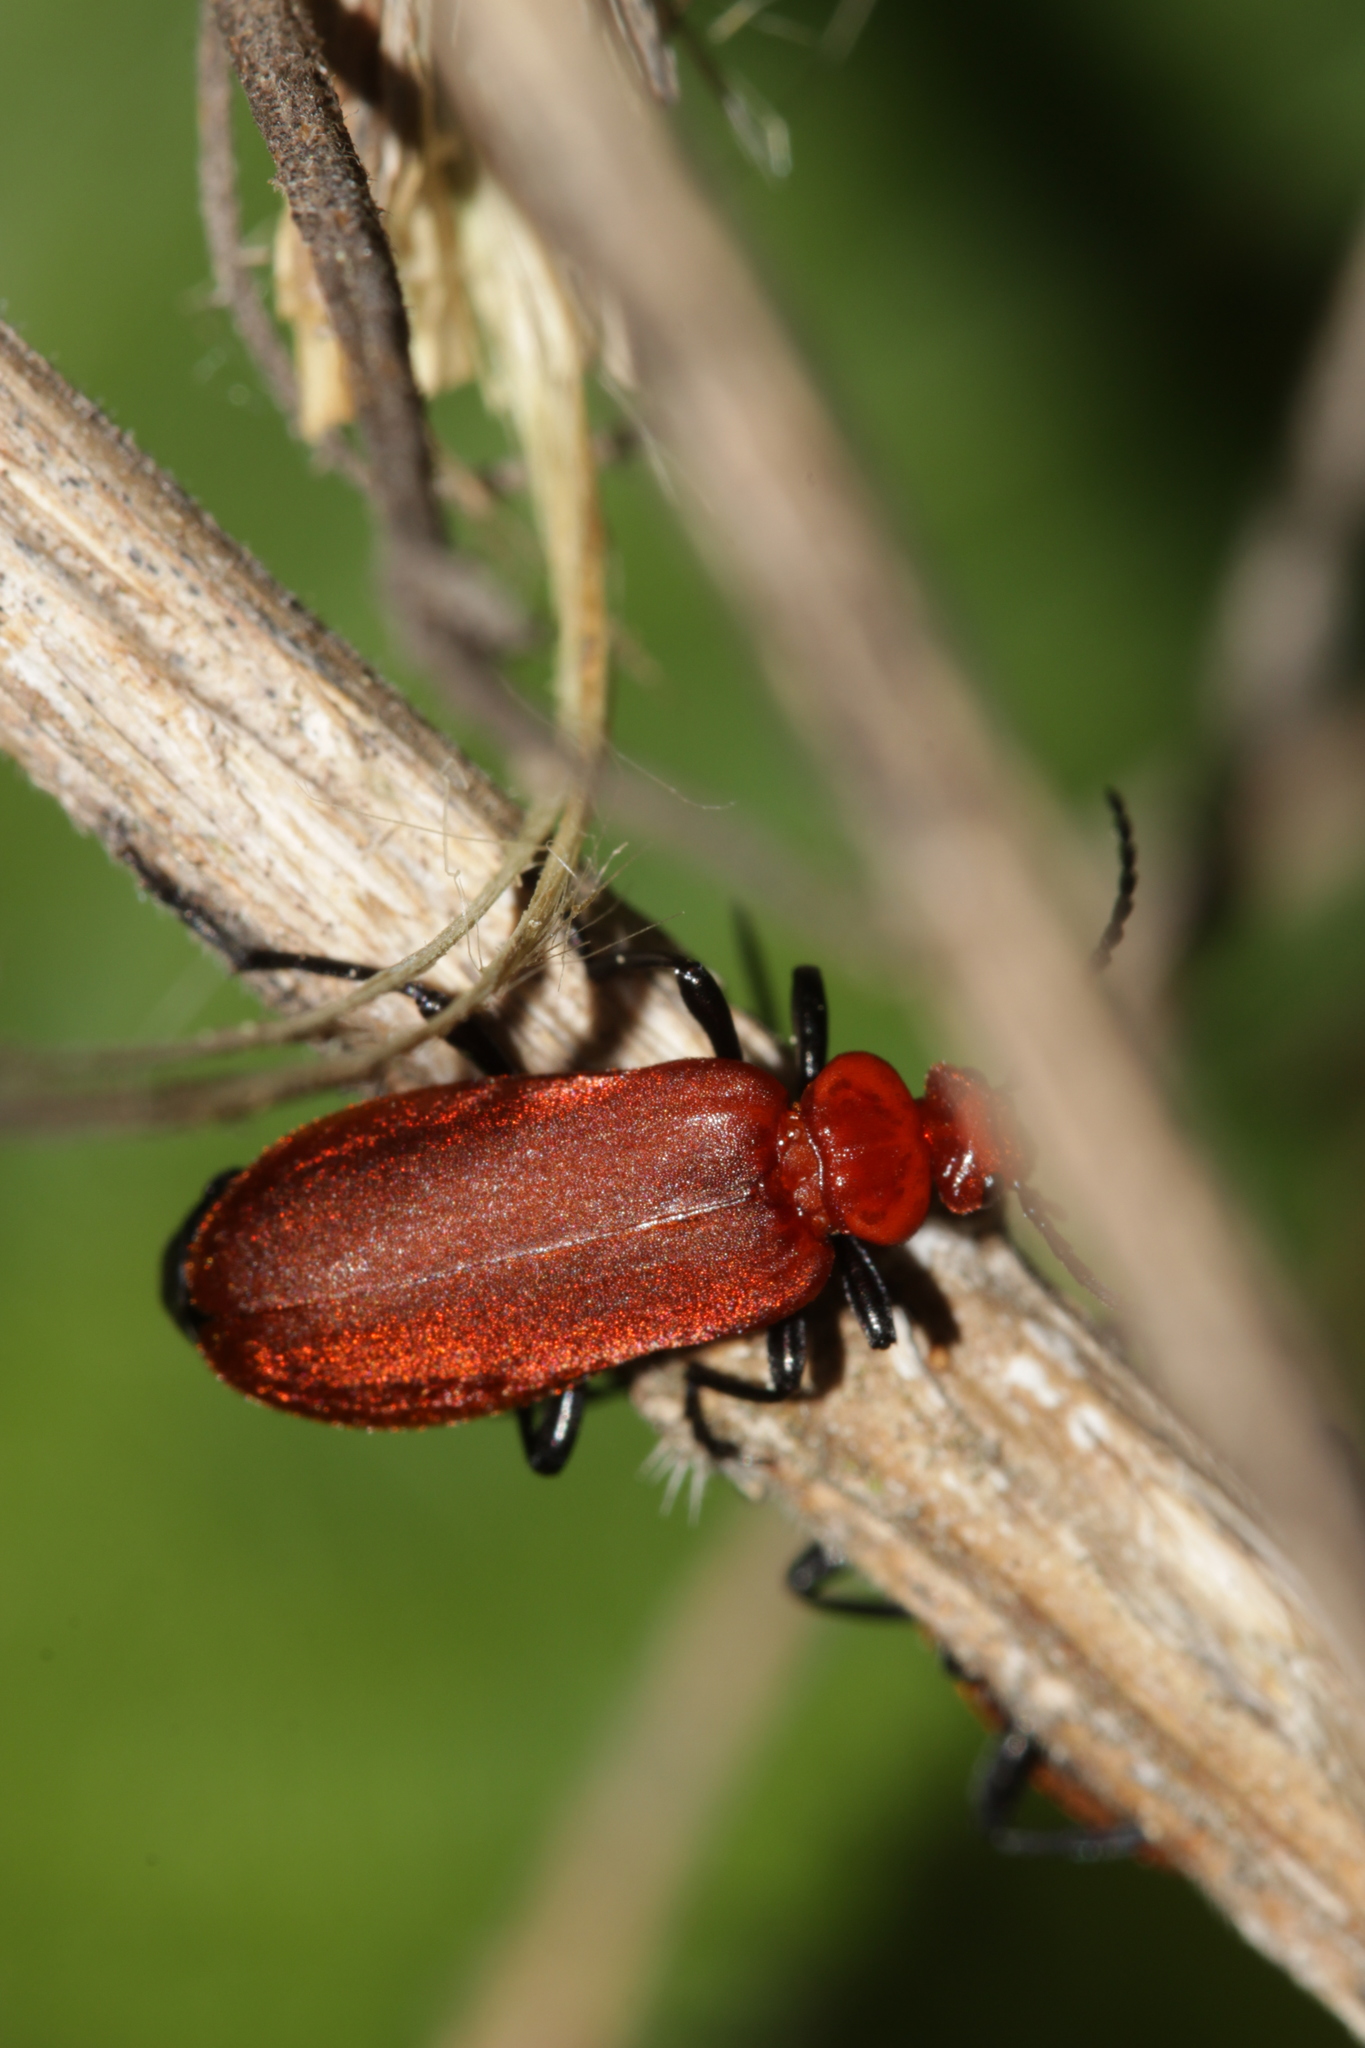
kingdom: Animalia
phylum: Arthropoda
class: Insecta
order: Coleoptera
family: Pyrochroidae
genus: Pyrochroa
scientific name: Pyrochroa serraticornis
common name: Red-headed cardinal beetle
